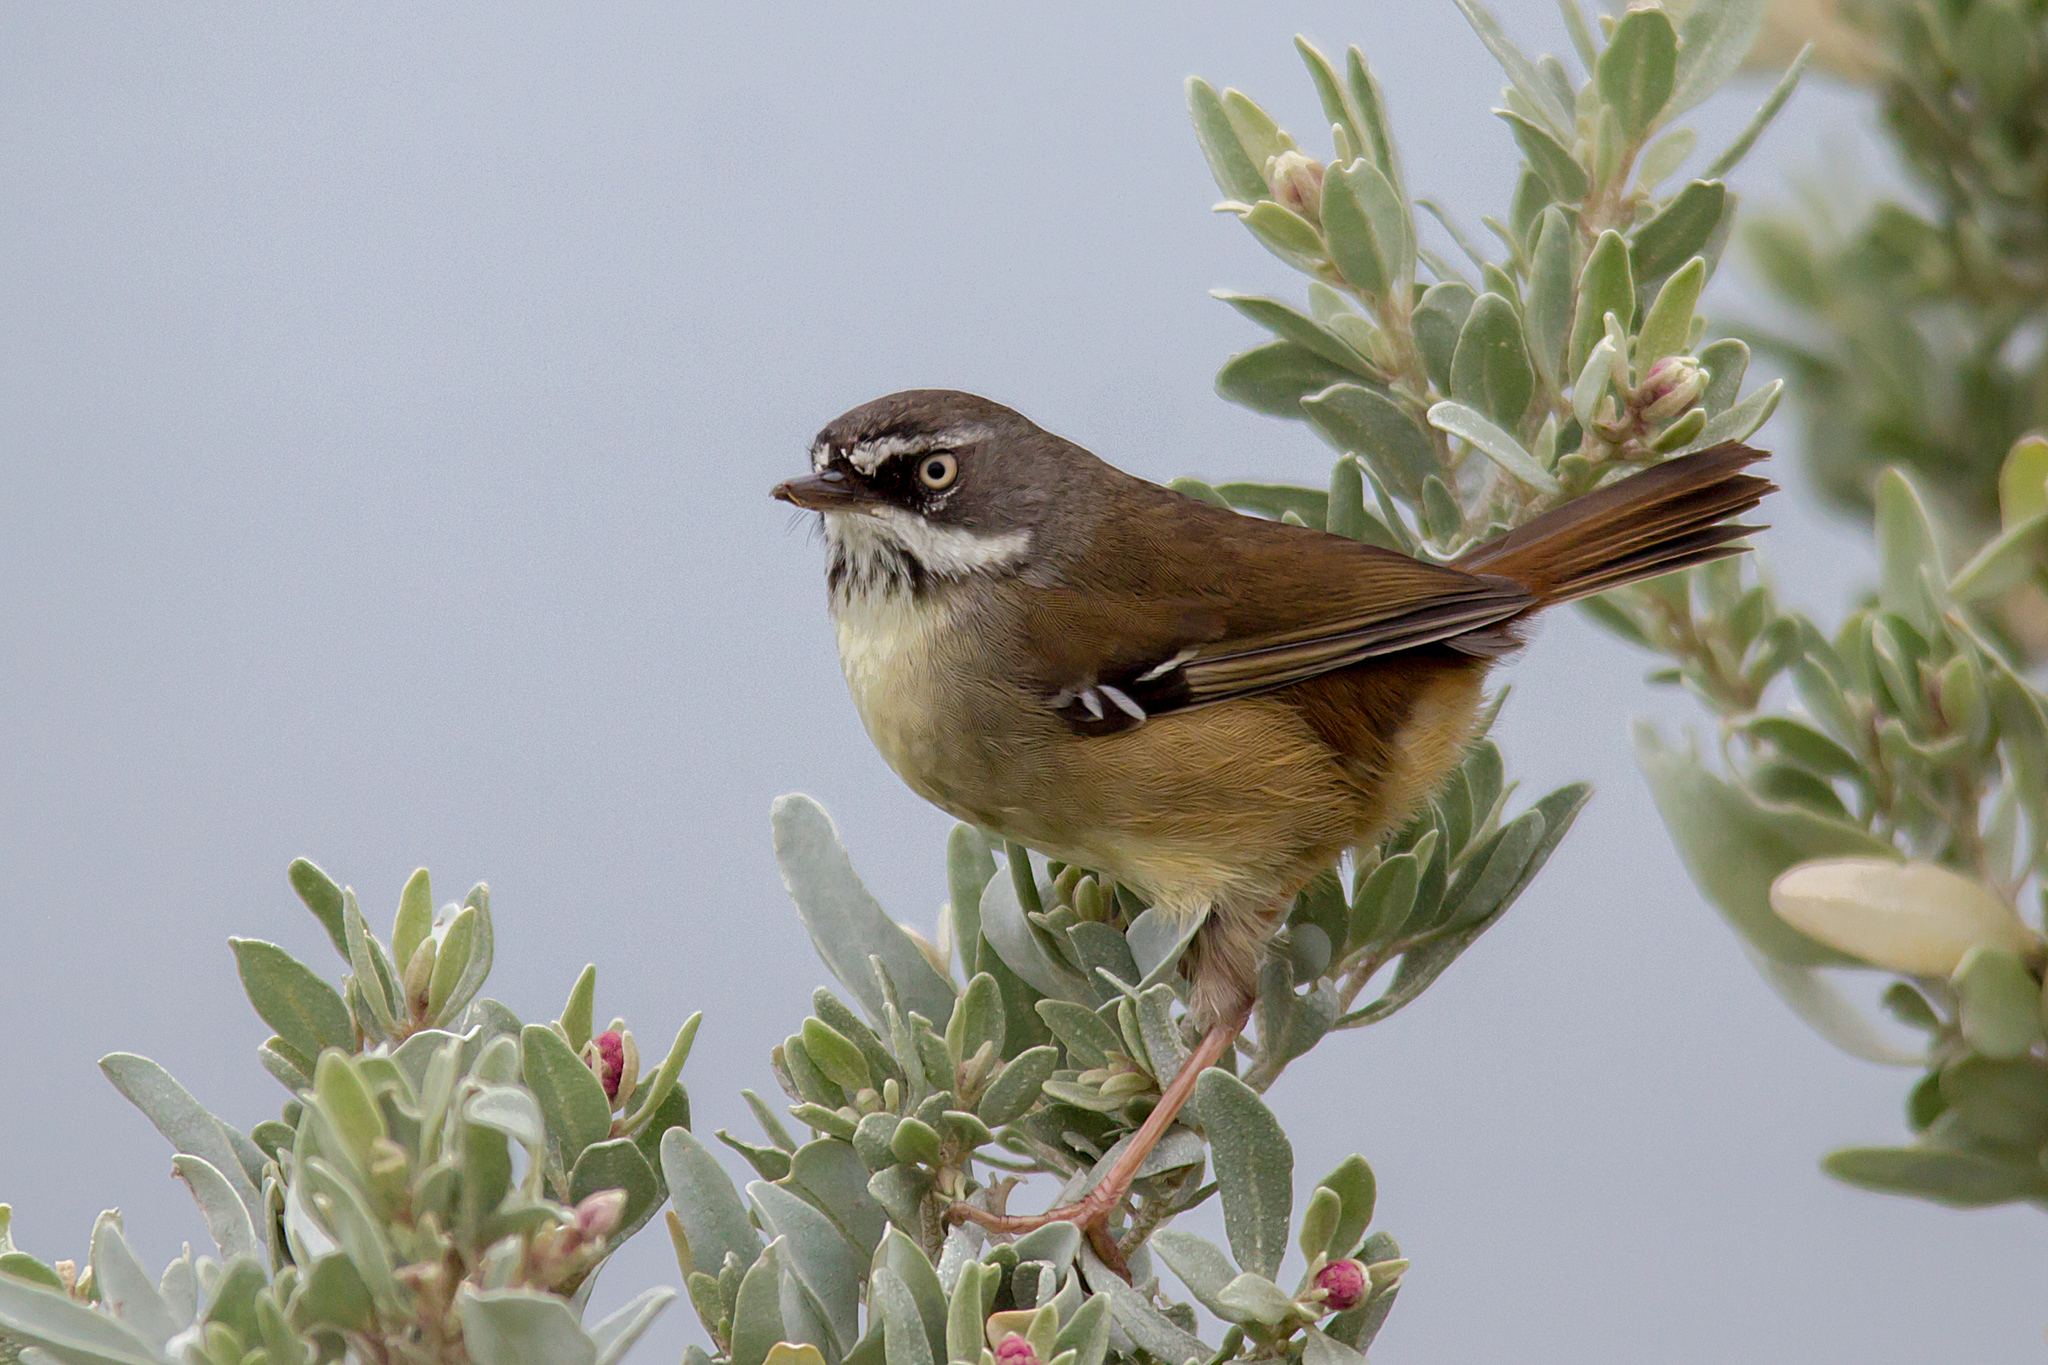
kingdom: Animalia
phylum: Chordata
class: Aves
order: Passeriformes
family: Acanthizidae
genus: Sericornis
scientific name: Sericornis frontalis
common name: White-browed scrubwren
